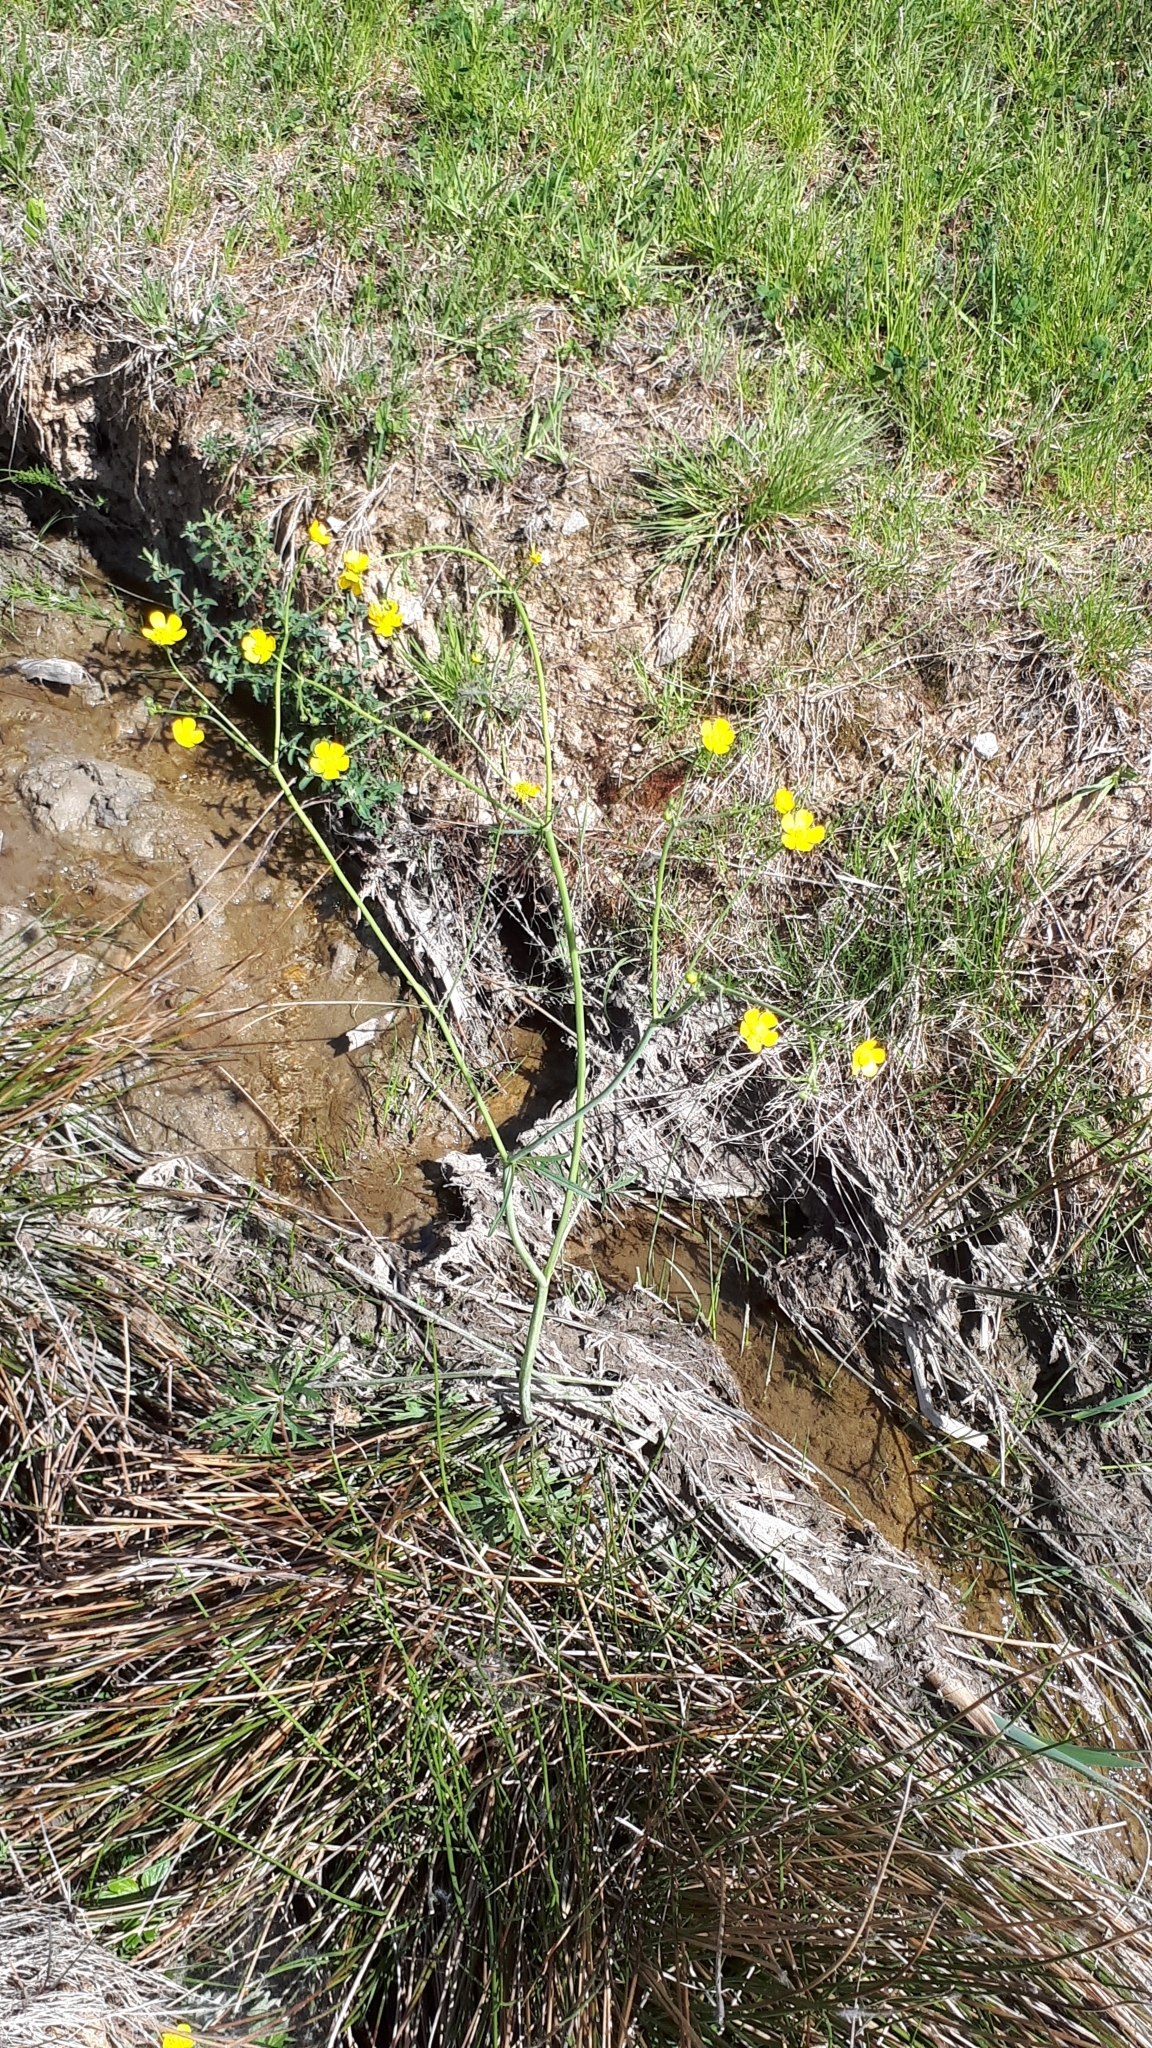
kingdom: Plantae
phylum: Tracheophyta
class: Magnoliopsida
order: Ranunculales
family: Ranunculaceae
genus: Ranunculus
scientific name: Ranunculus acris
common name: Meadow buttercup
